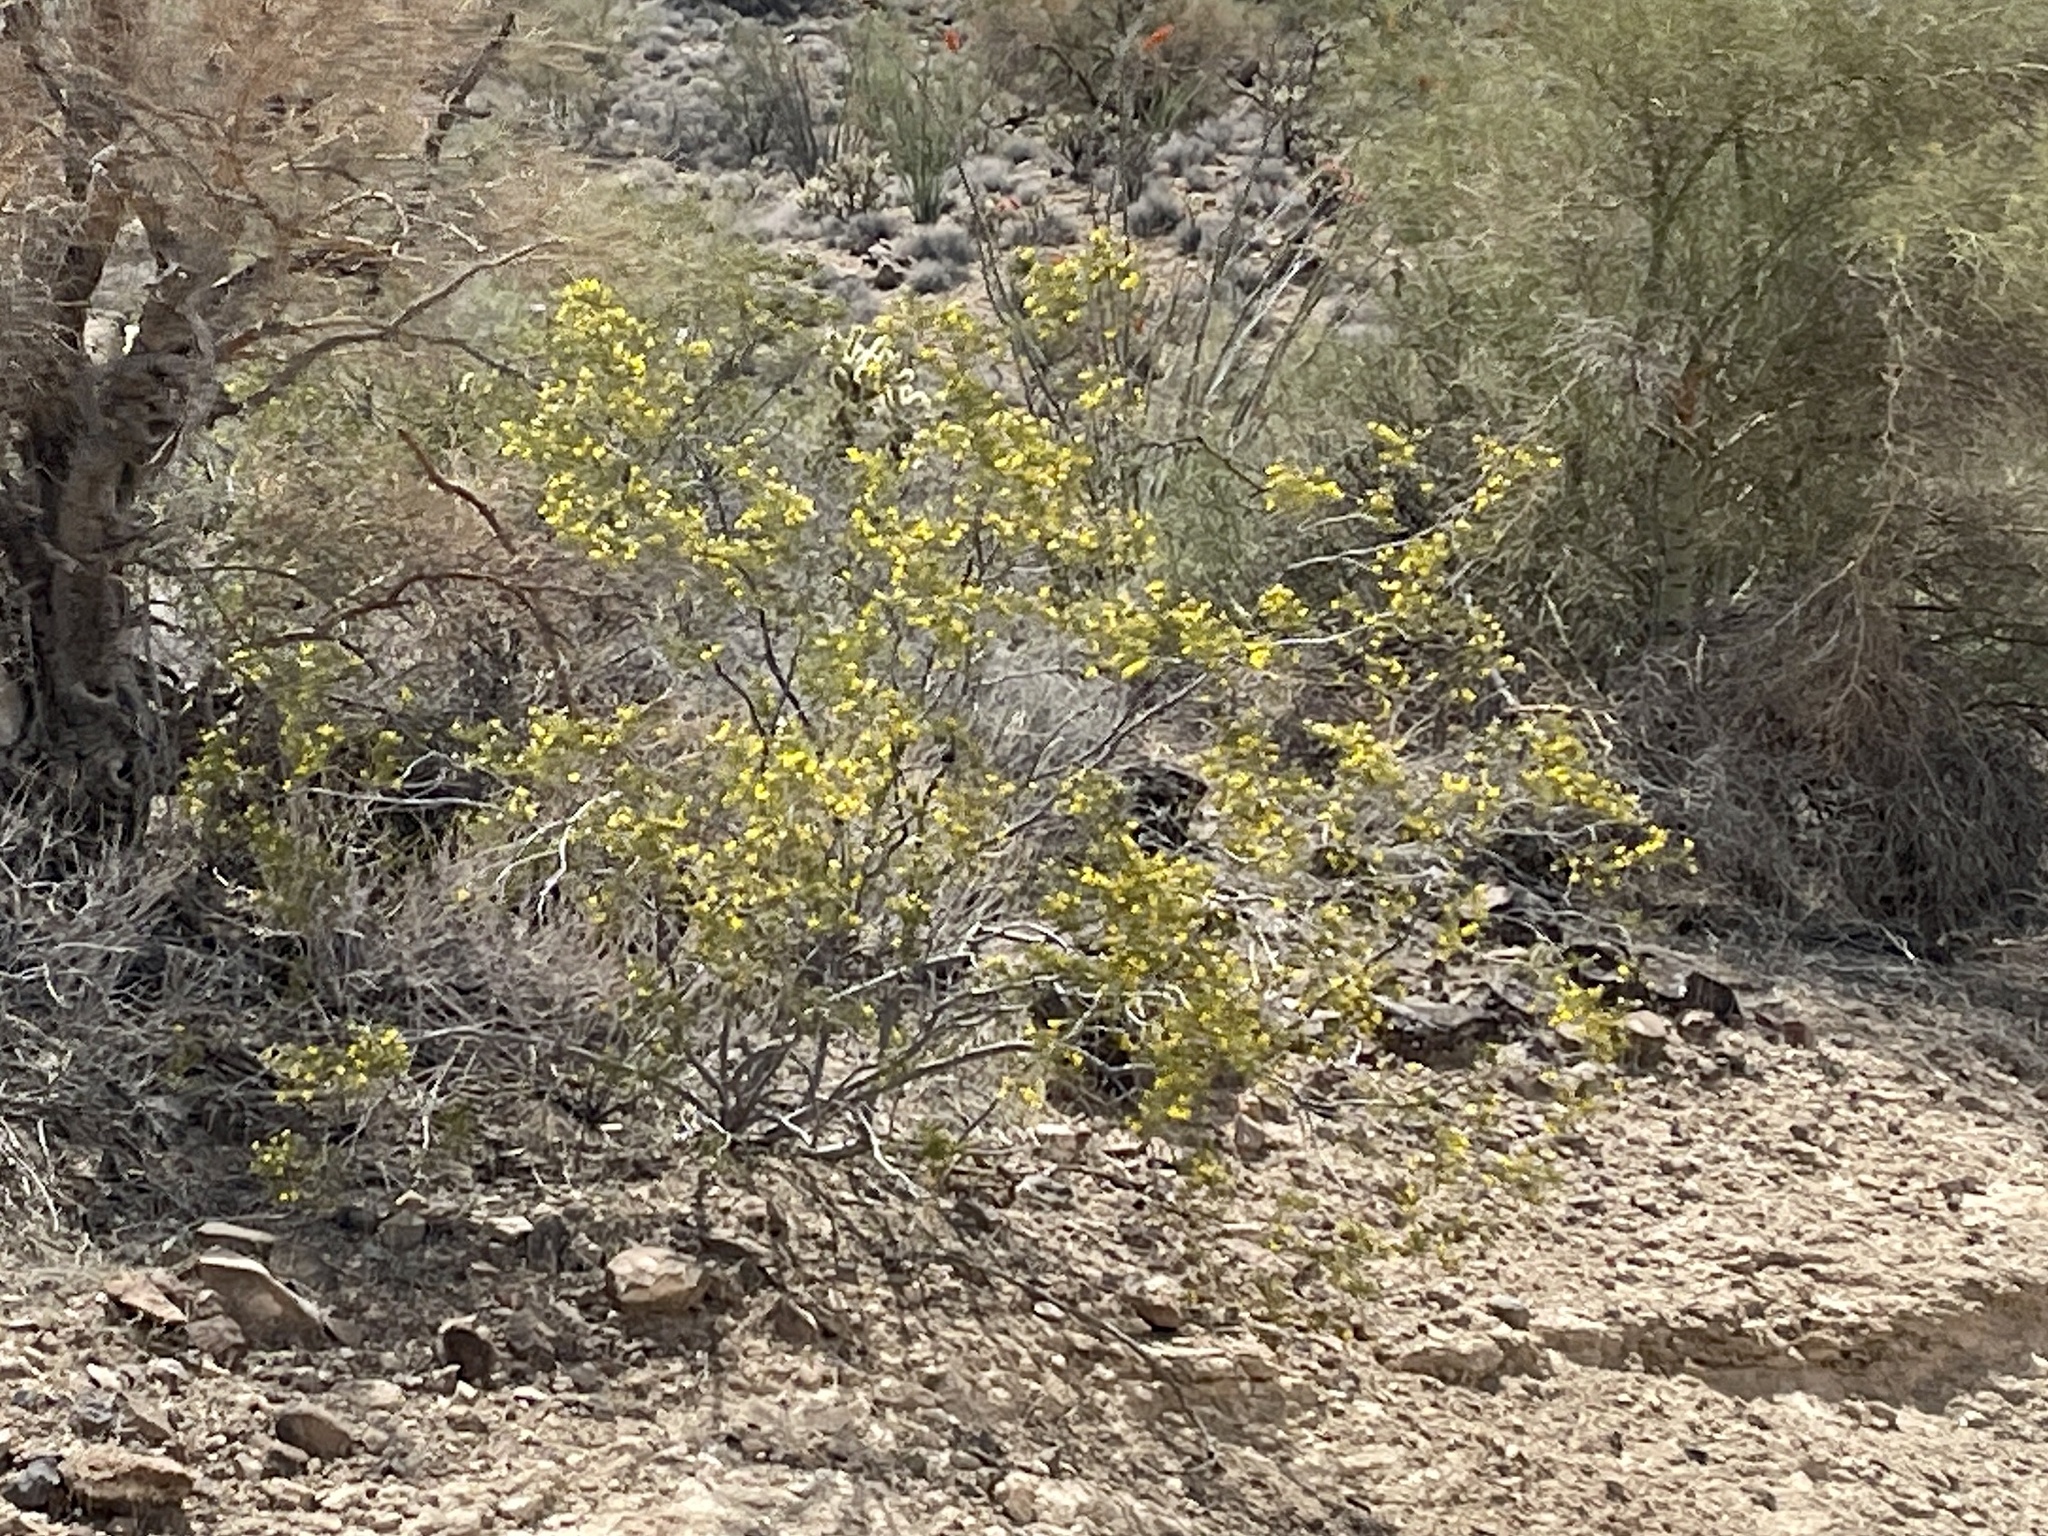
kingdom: Plantae
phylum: Tracheophyta
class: Magnoliopsida
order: Zygophyllales
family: Zygophyllaceae
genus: Larrea
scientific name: Larrea tridentata
